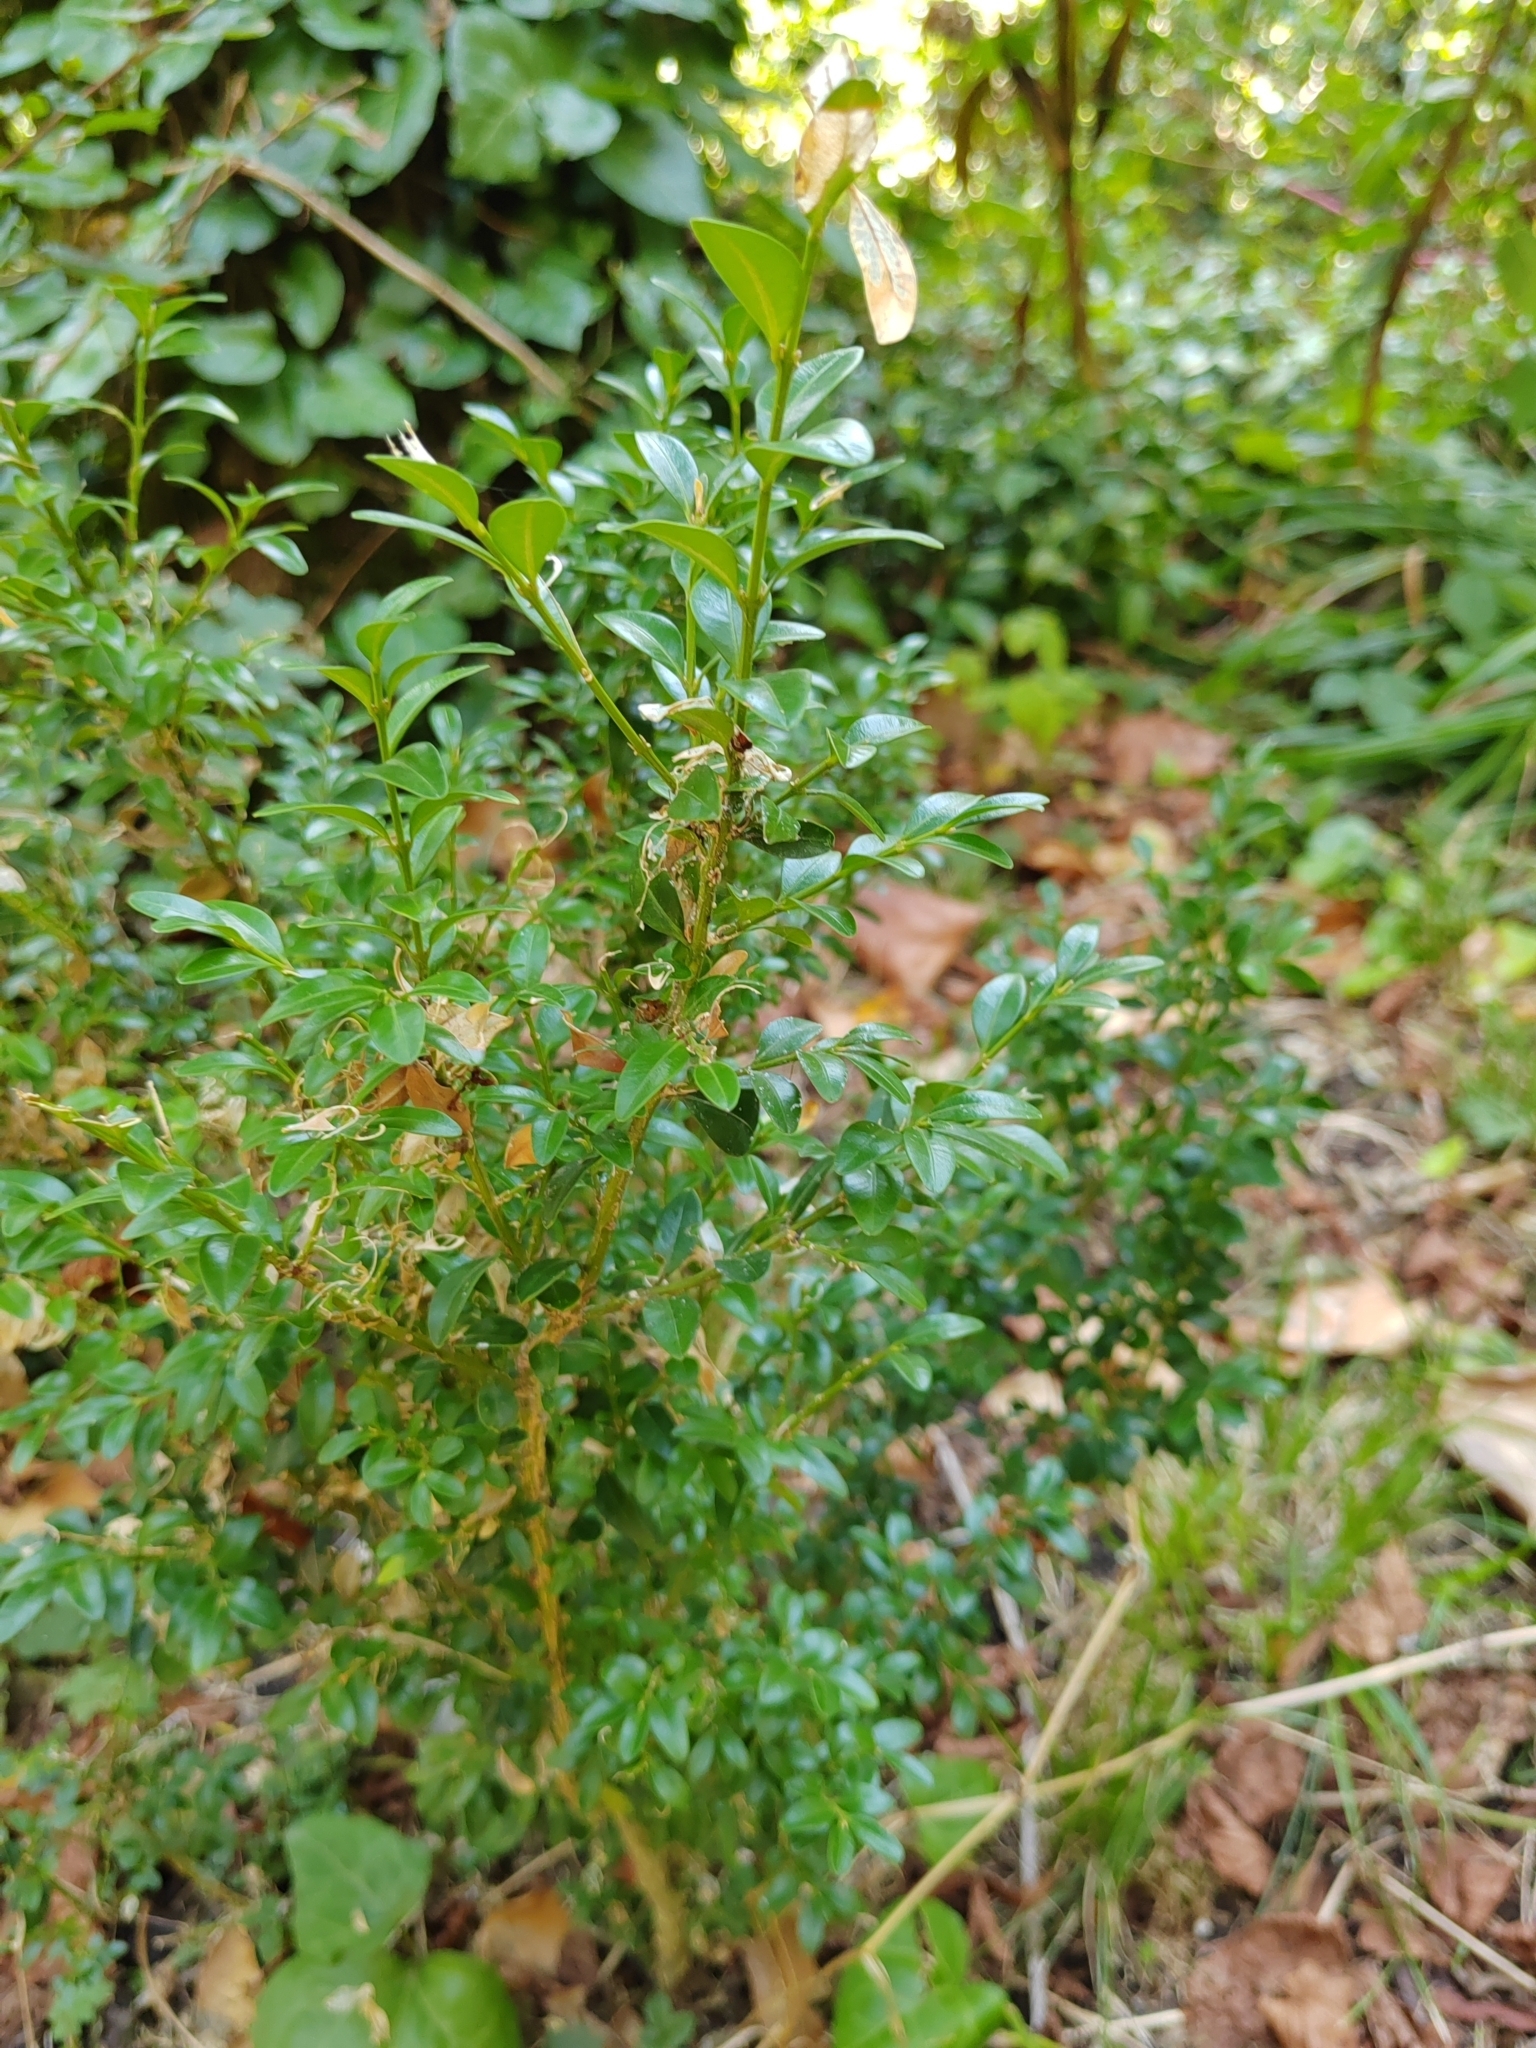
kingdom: Plantae
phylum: Tracheophyta
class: Magnoliopsida
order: Buxales
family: Buxaceae
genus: Buxus
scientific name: Buxus sempervirens
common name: Box
